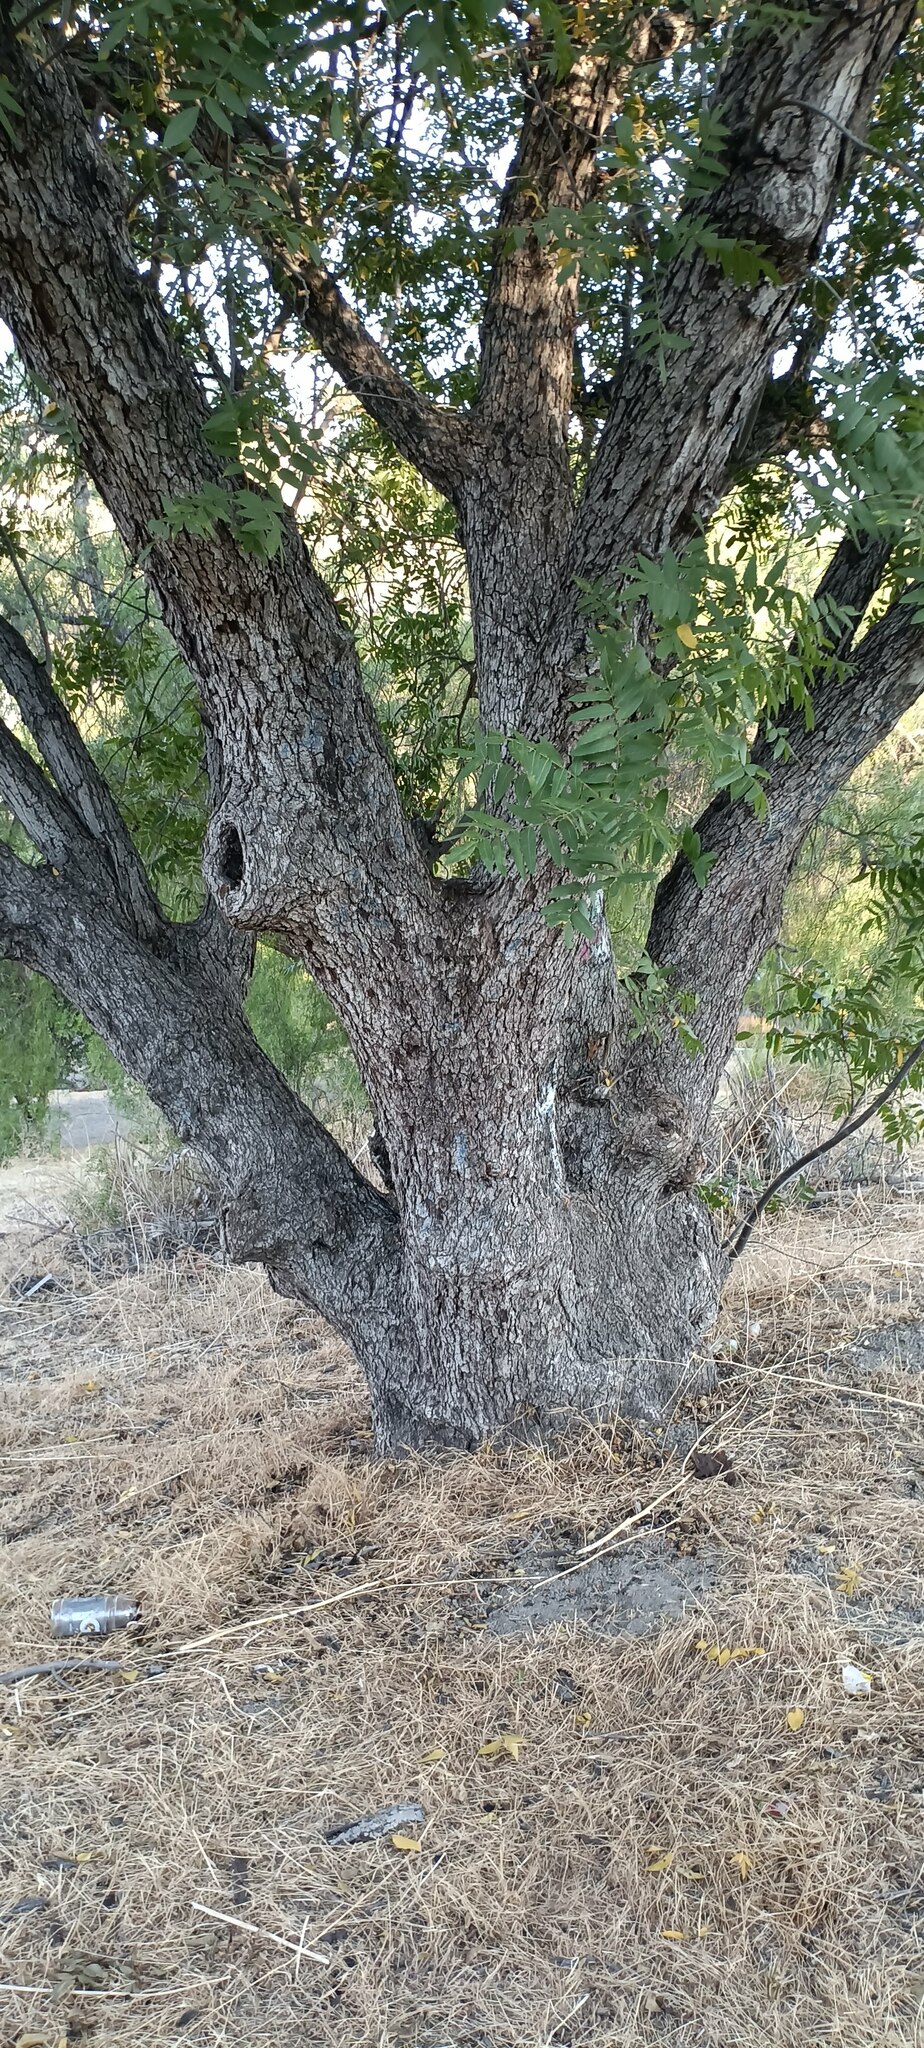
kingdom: Plantae
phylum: Tracheophyta
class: Magnoliopsida
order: Fagales
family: Juglandaceae
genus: Juglans
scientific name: Juglans californica
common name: Southern california black walnut
